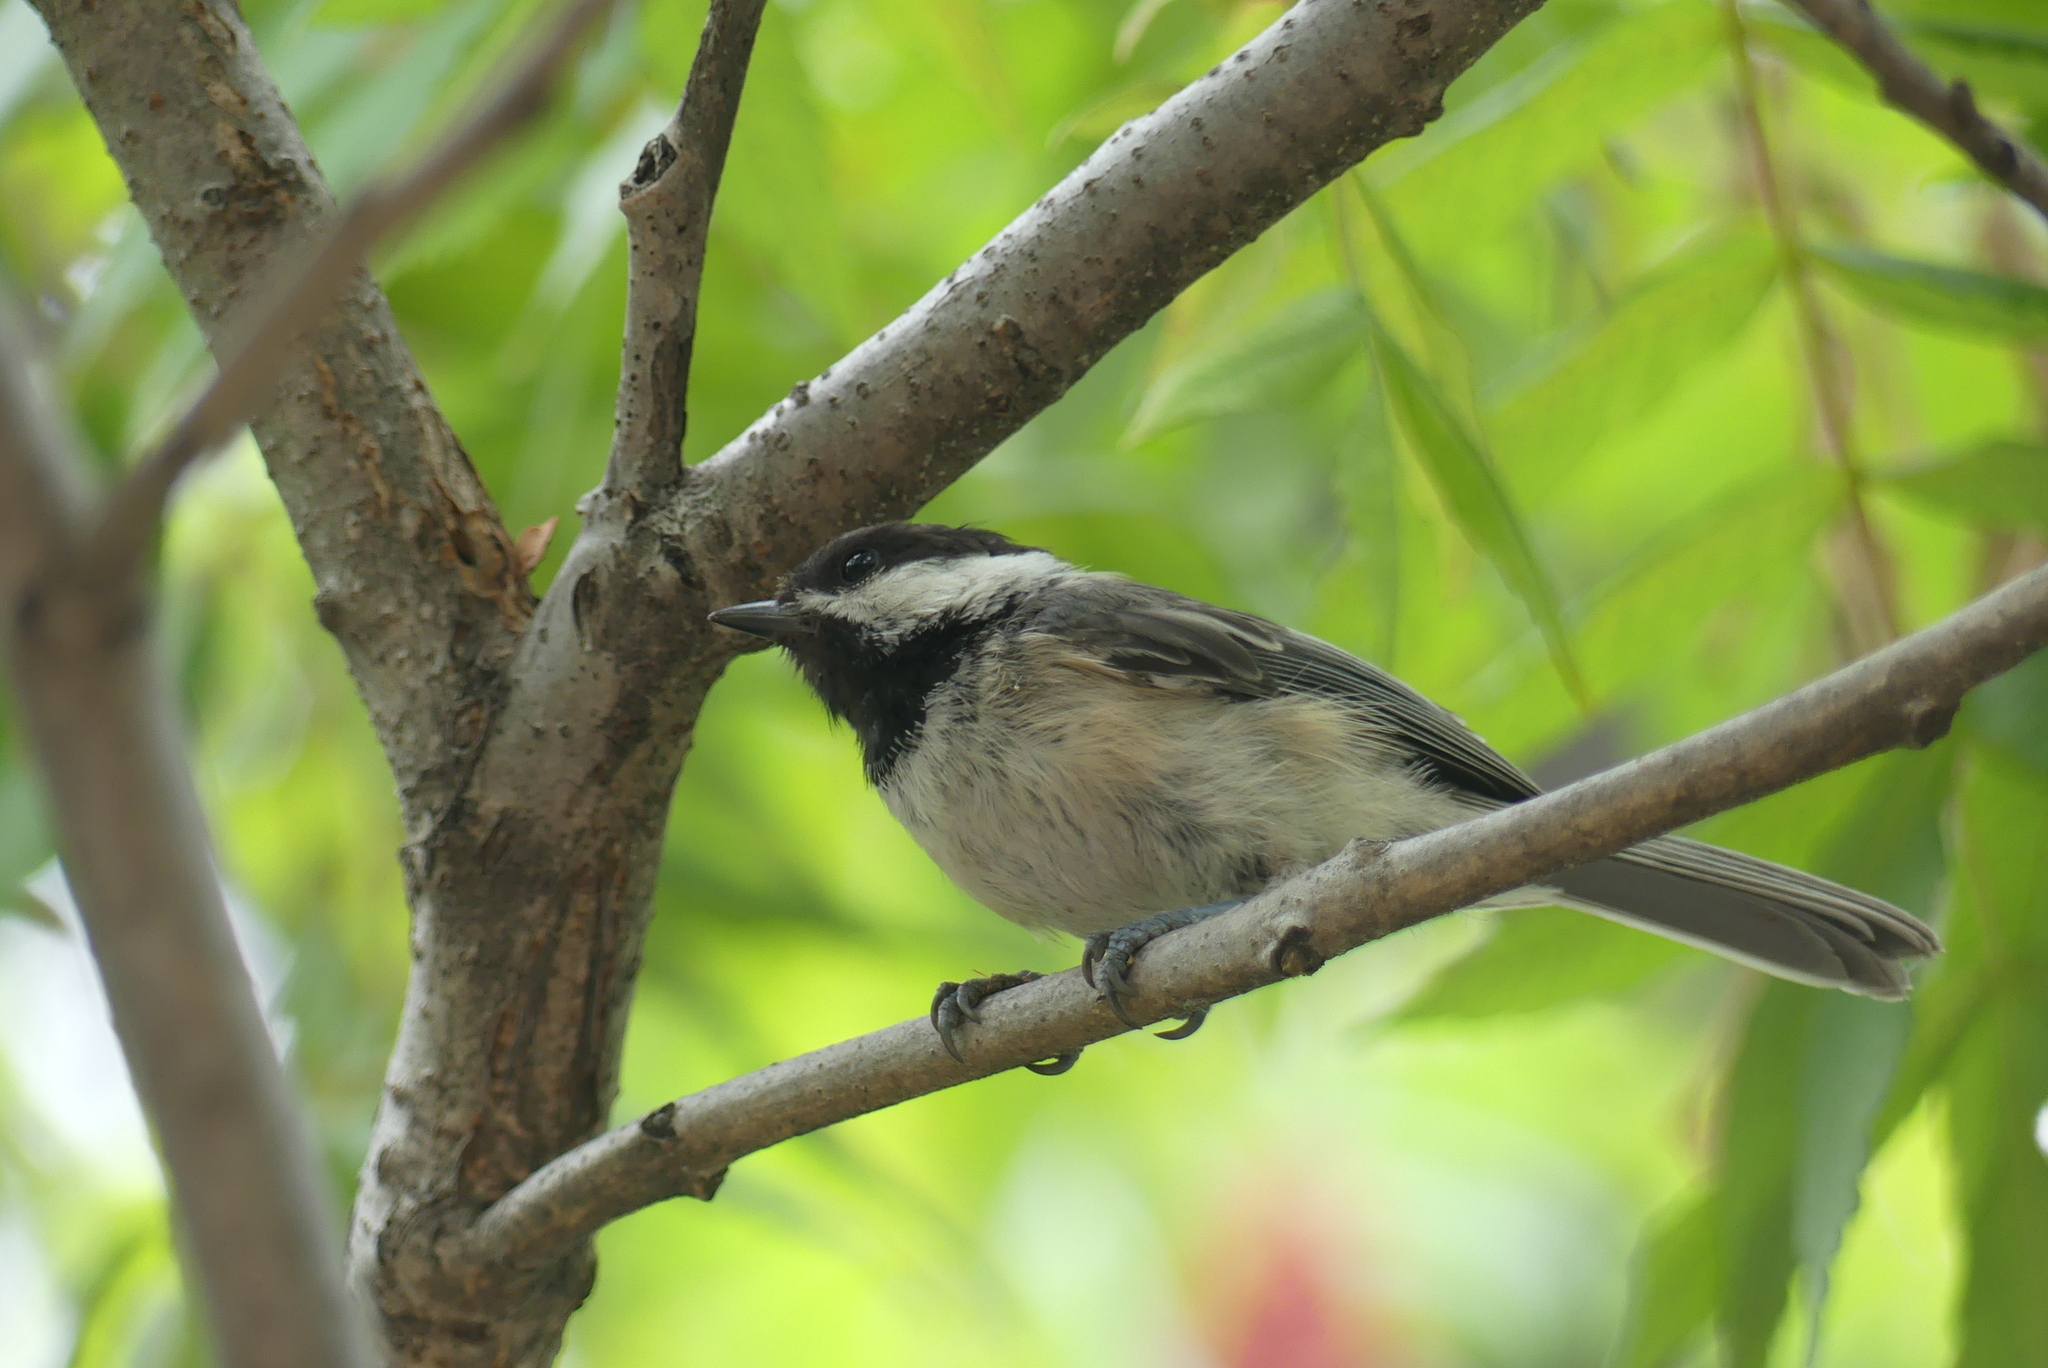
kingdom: Animalia
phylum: Chordata
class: Aves
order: Passeriformes
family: Paridae
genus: Poecile
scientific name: Poecile atricapillus
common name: Black-capped chickadee
